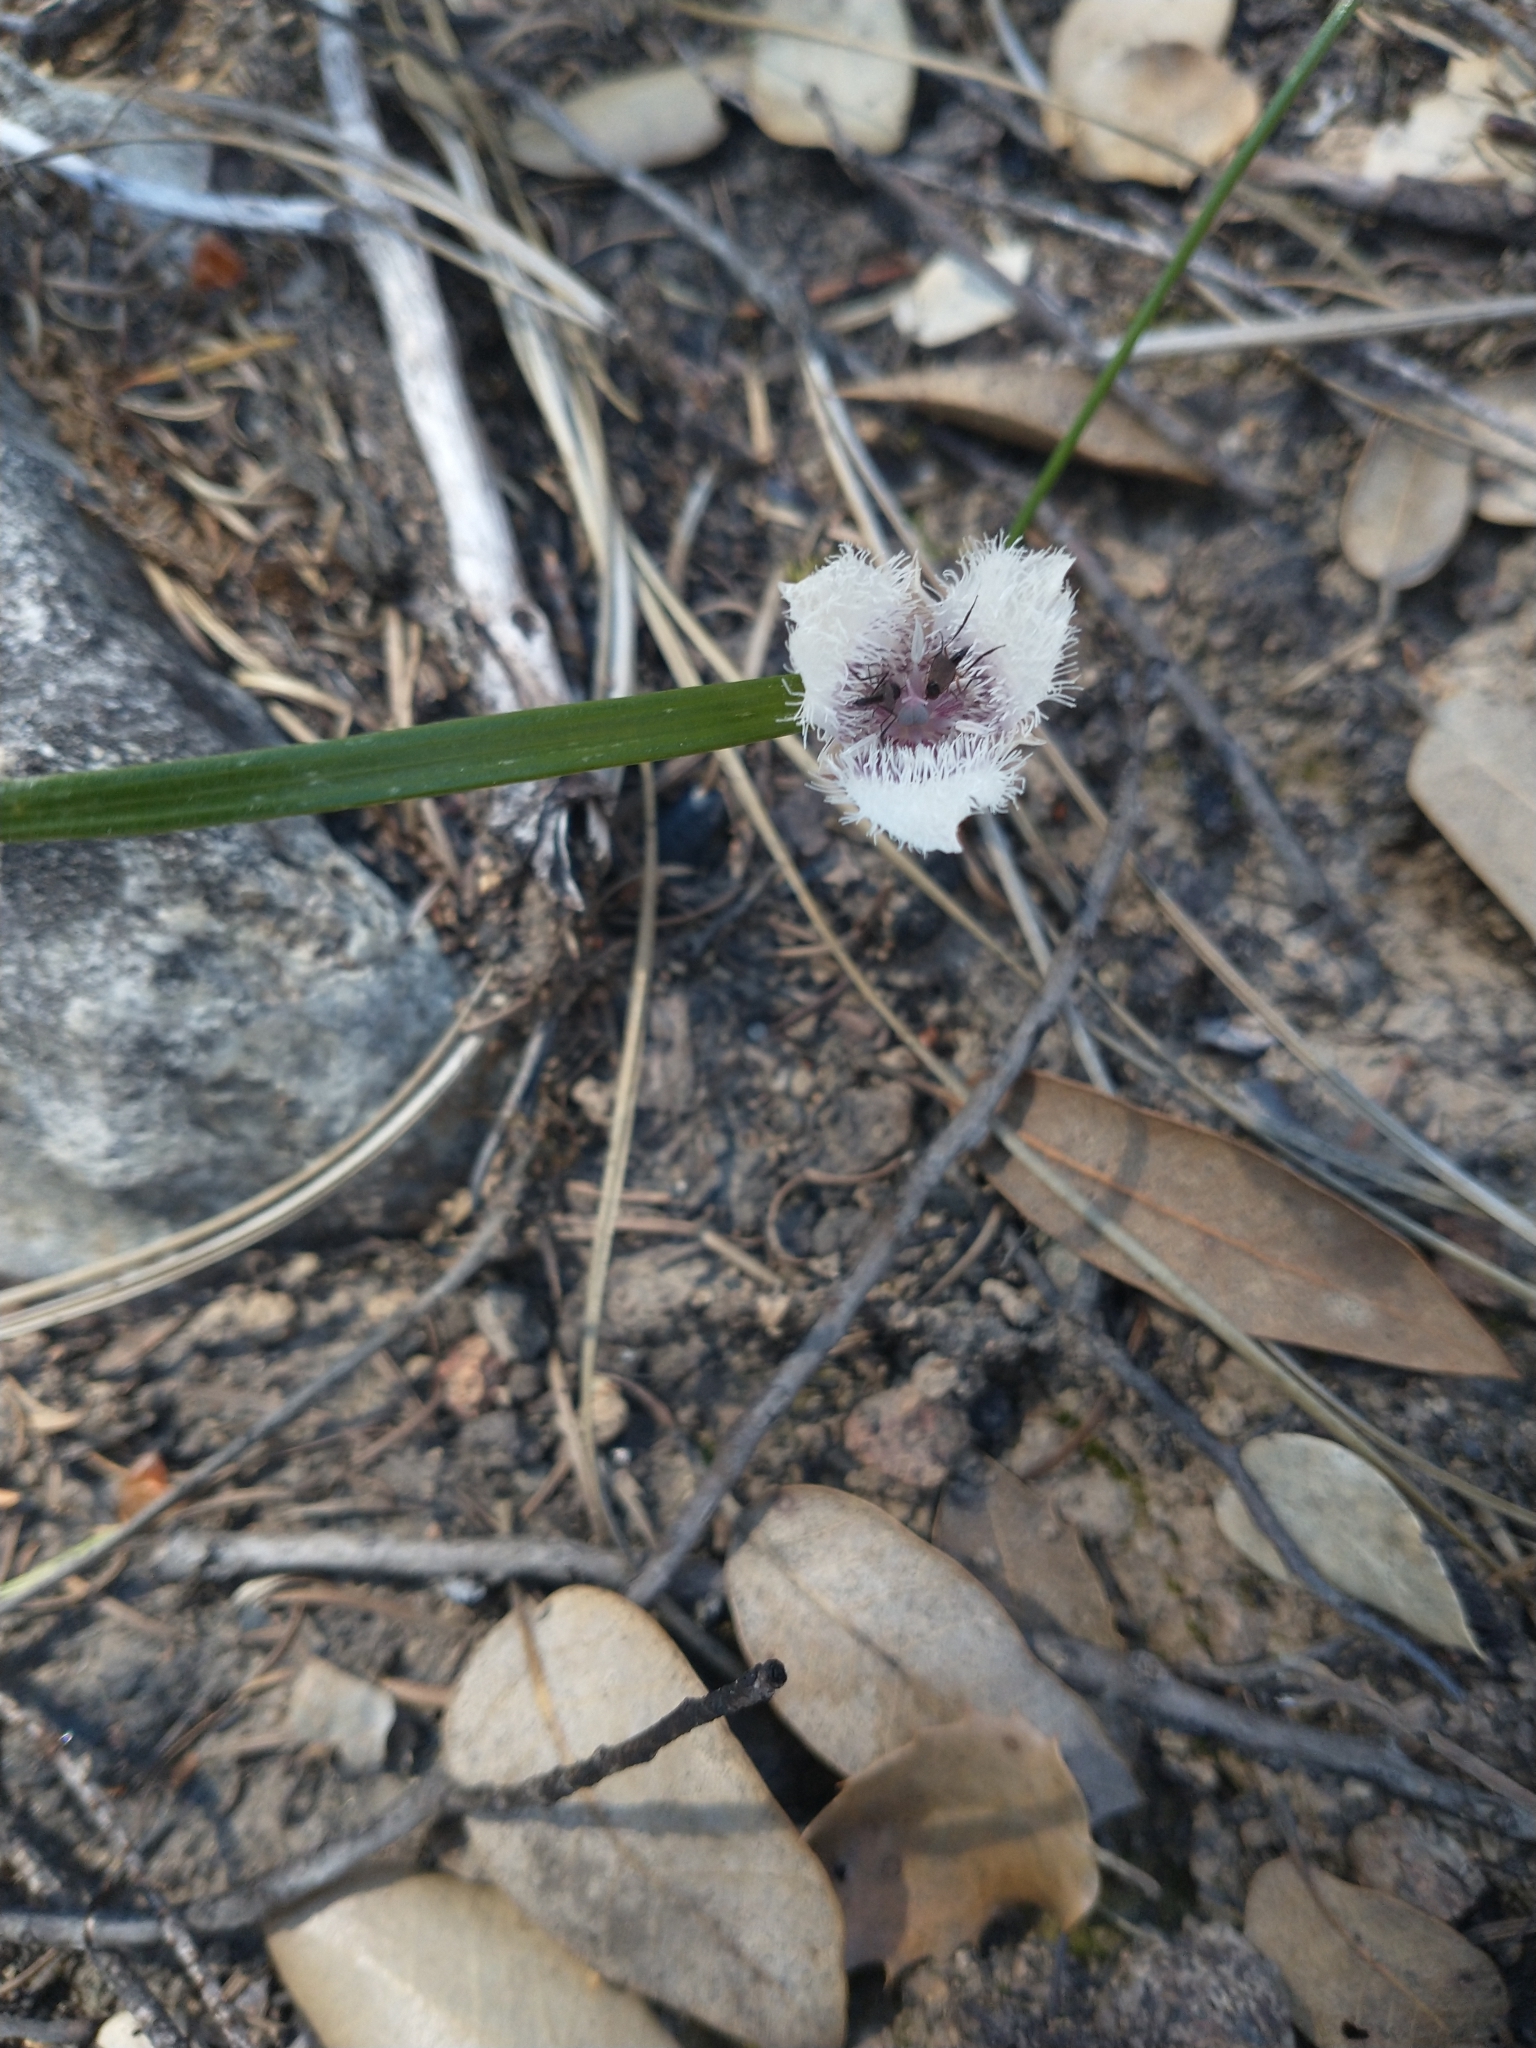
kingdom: Plantae
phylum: Tracheophyta
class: Liliopsida
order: Liliales
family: Liliaceae
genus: Calochortus
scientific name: Calochortus tolmiei
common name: Pussy-ears
